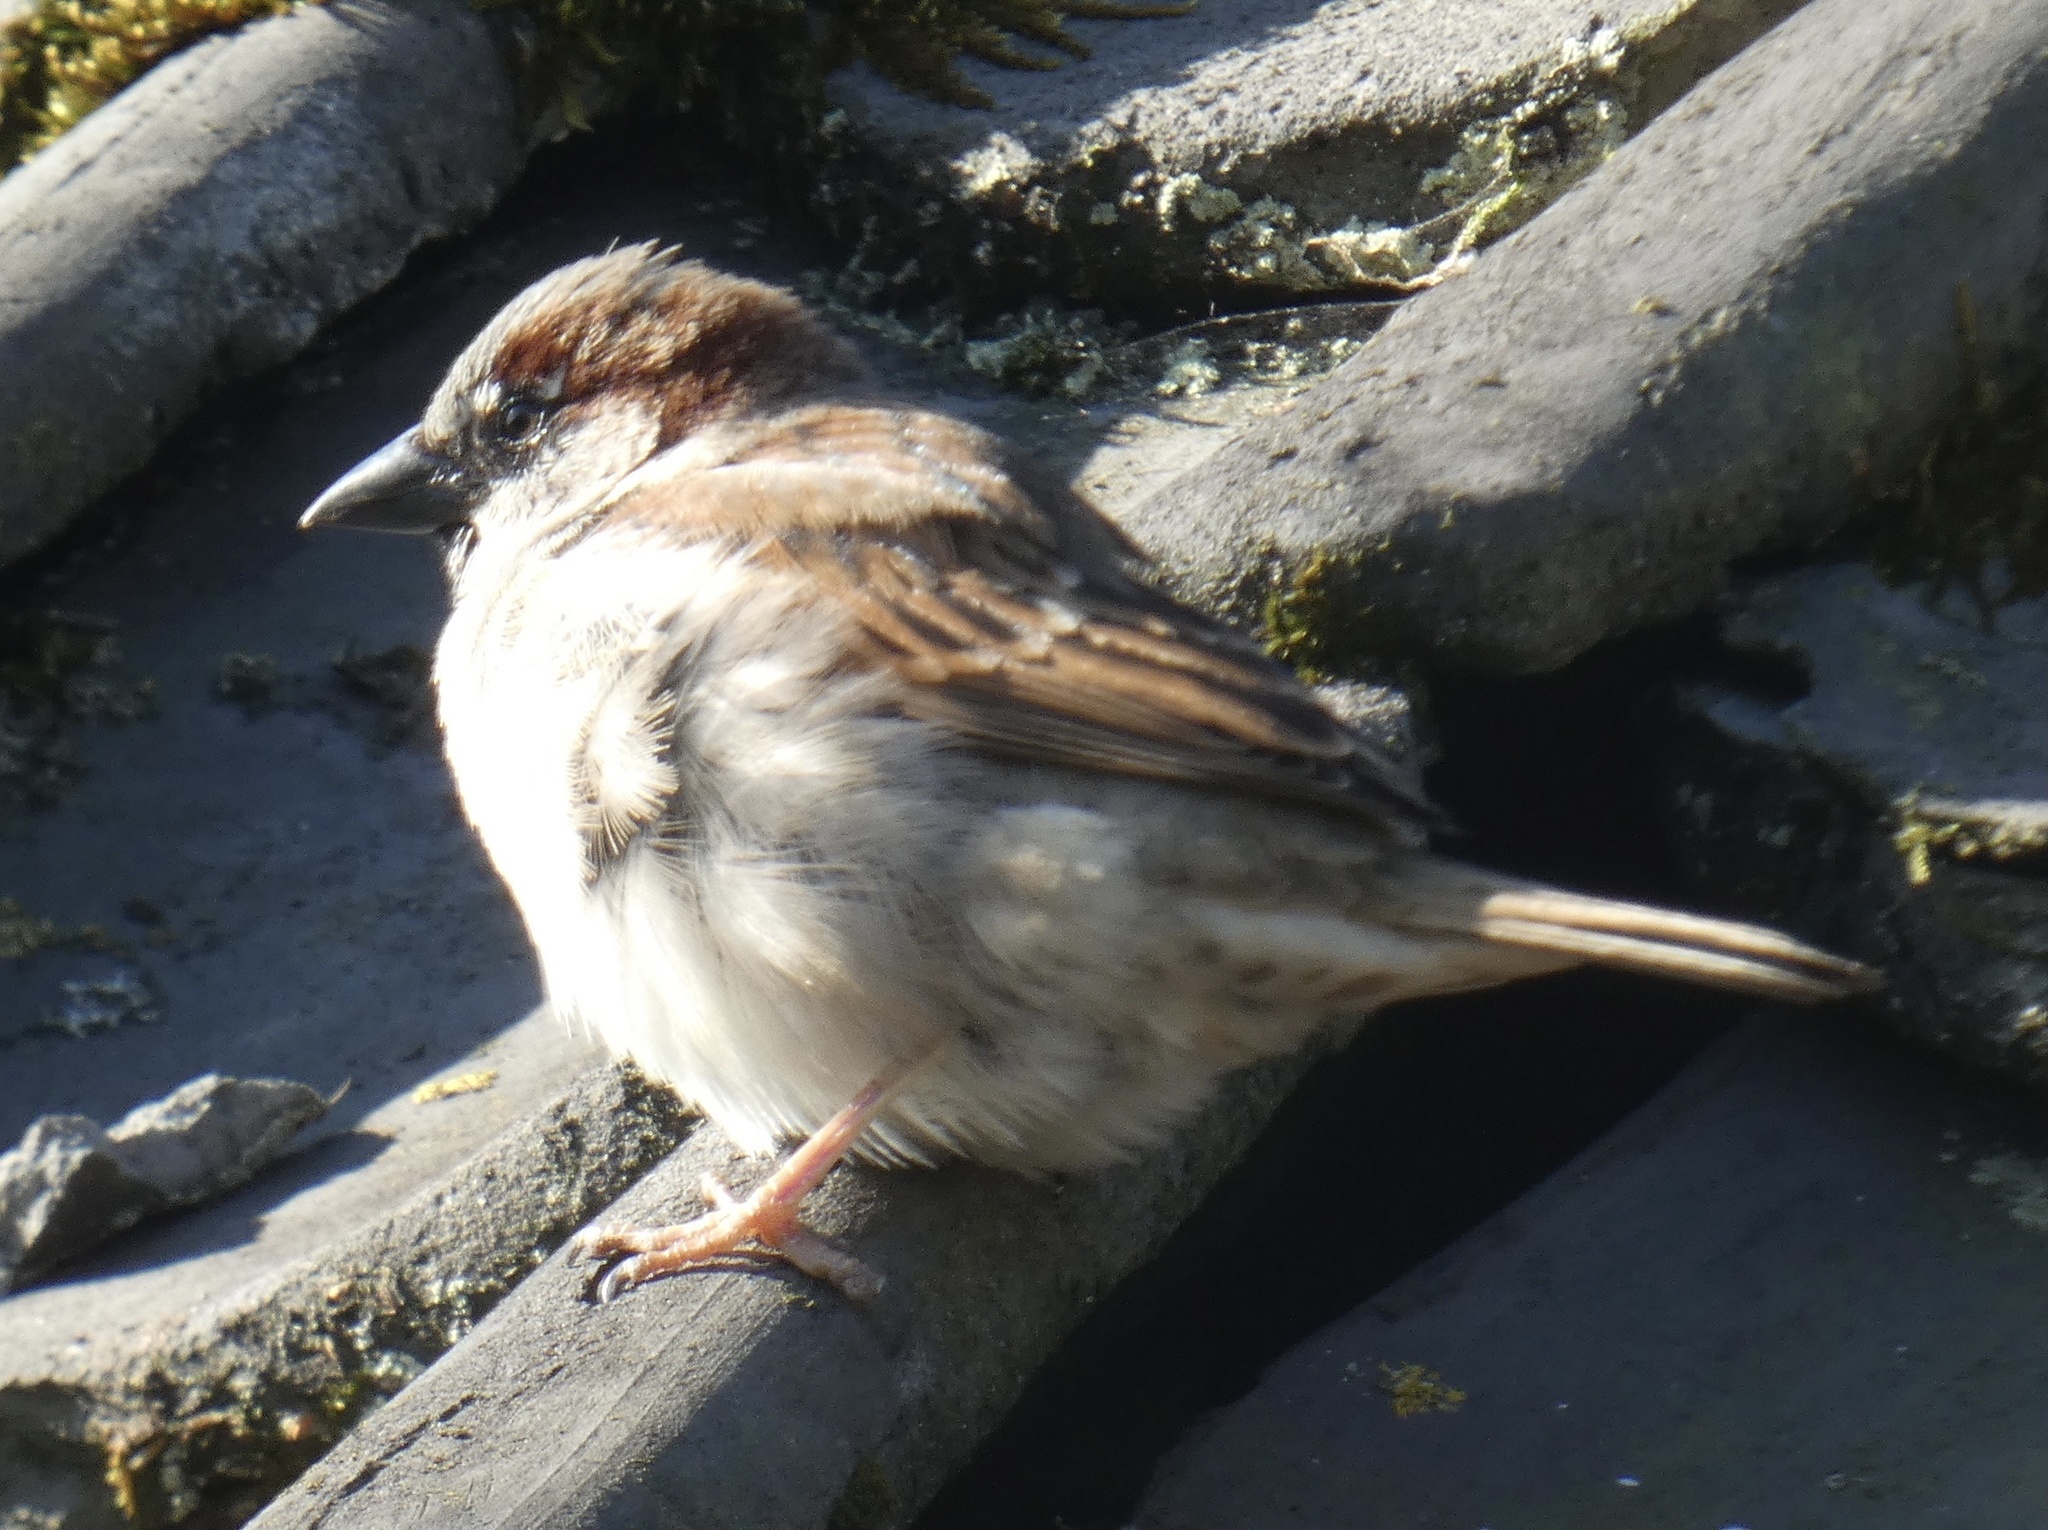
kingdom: Animalia
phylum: Chordata
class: Aves
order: Passeriformes
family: Passeridae
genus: Passer
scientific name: Passer domesticus
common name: House sparrow
